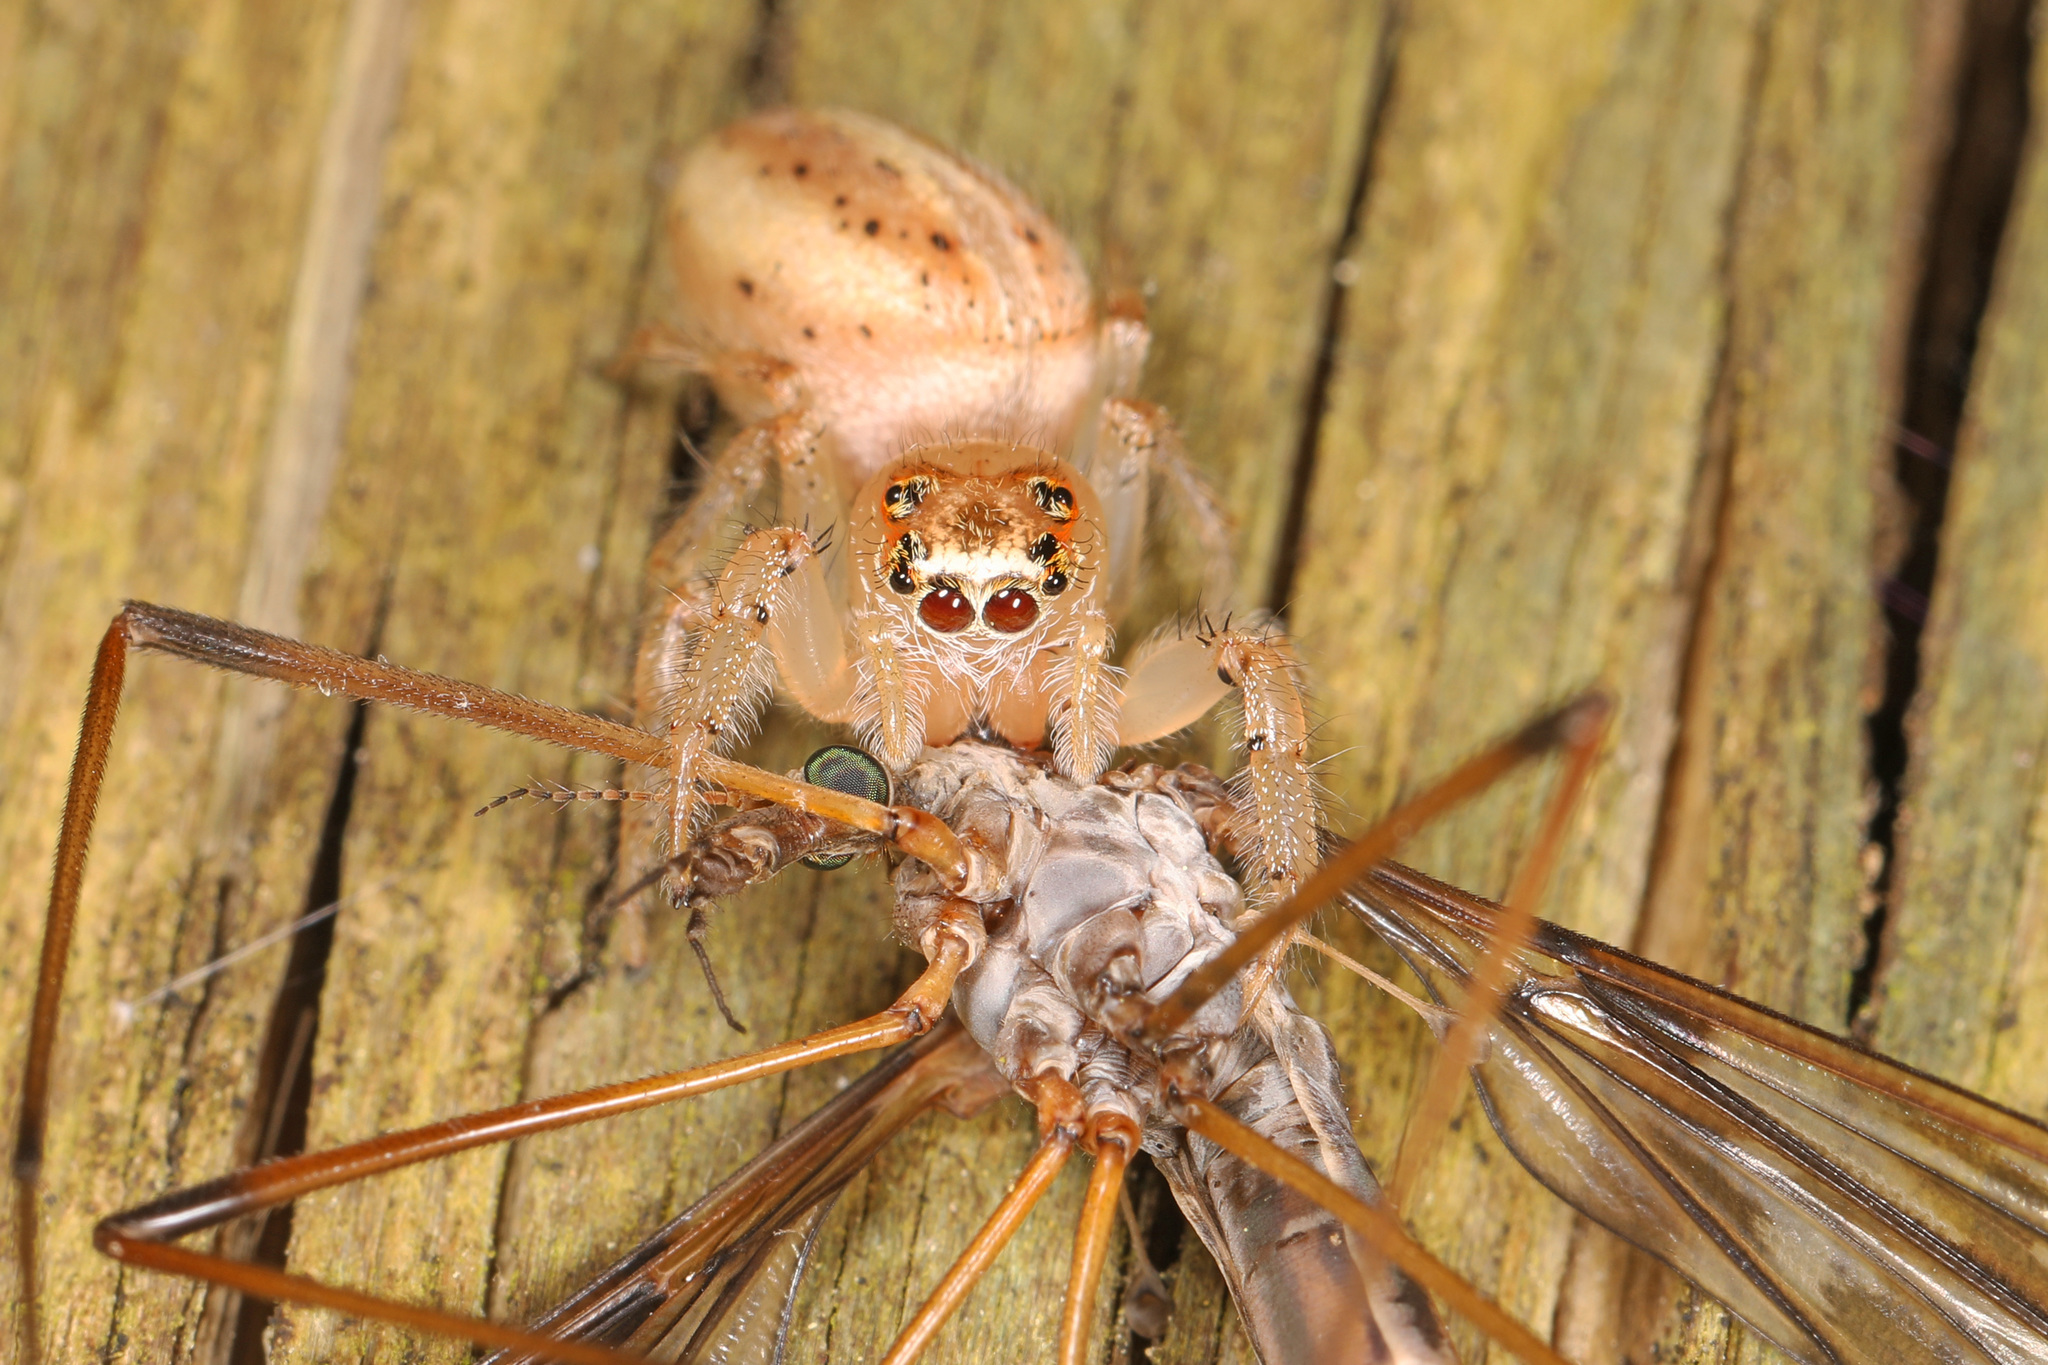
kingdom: Animalia
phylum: Arthropoda
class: Arachnida
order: Araneae
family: Salticidae
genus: Colonus
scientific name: Colonus sylvanus
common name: Jumping spiders
